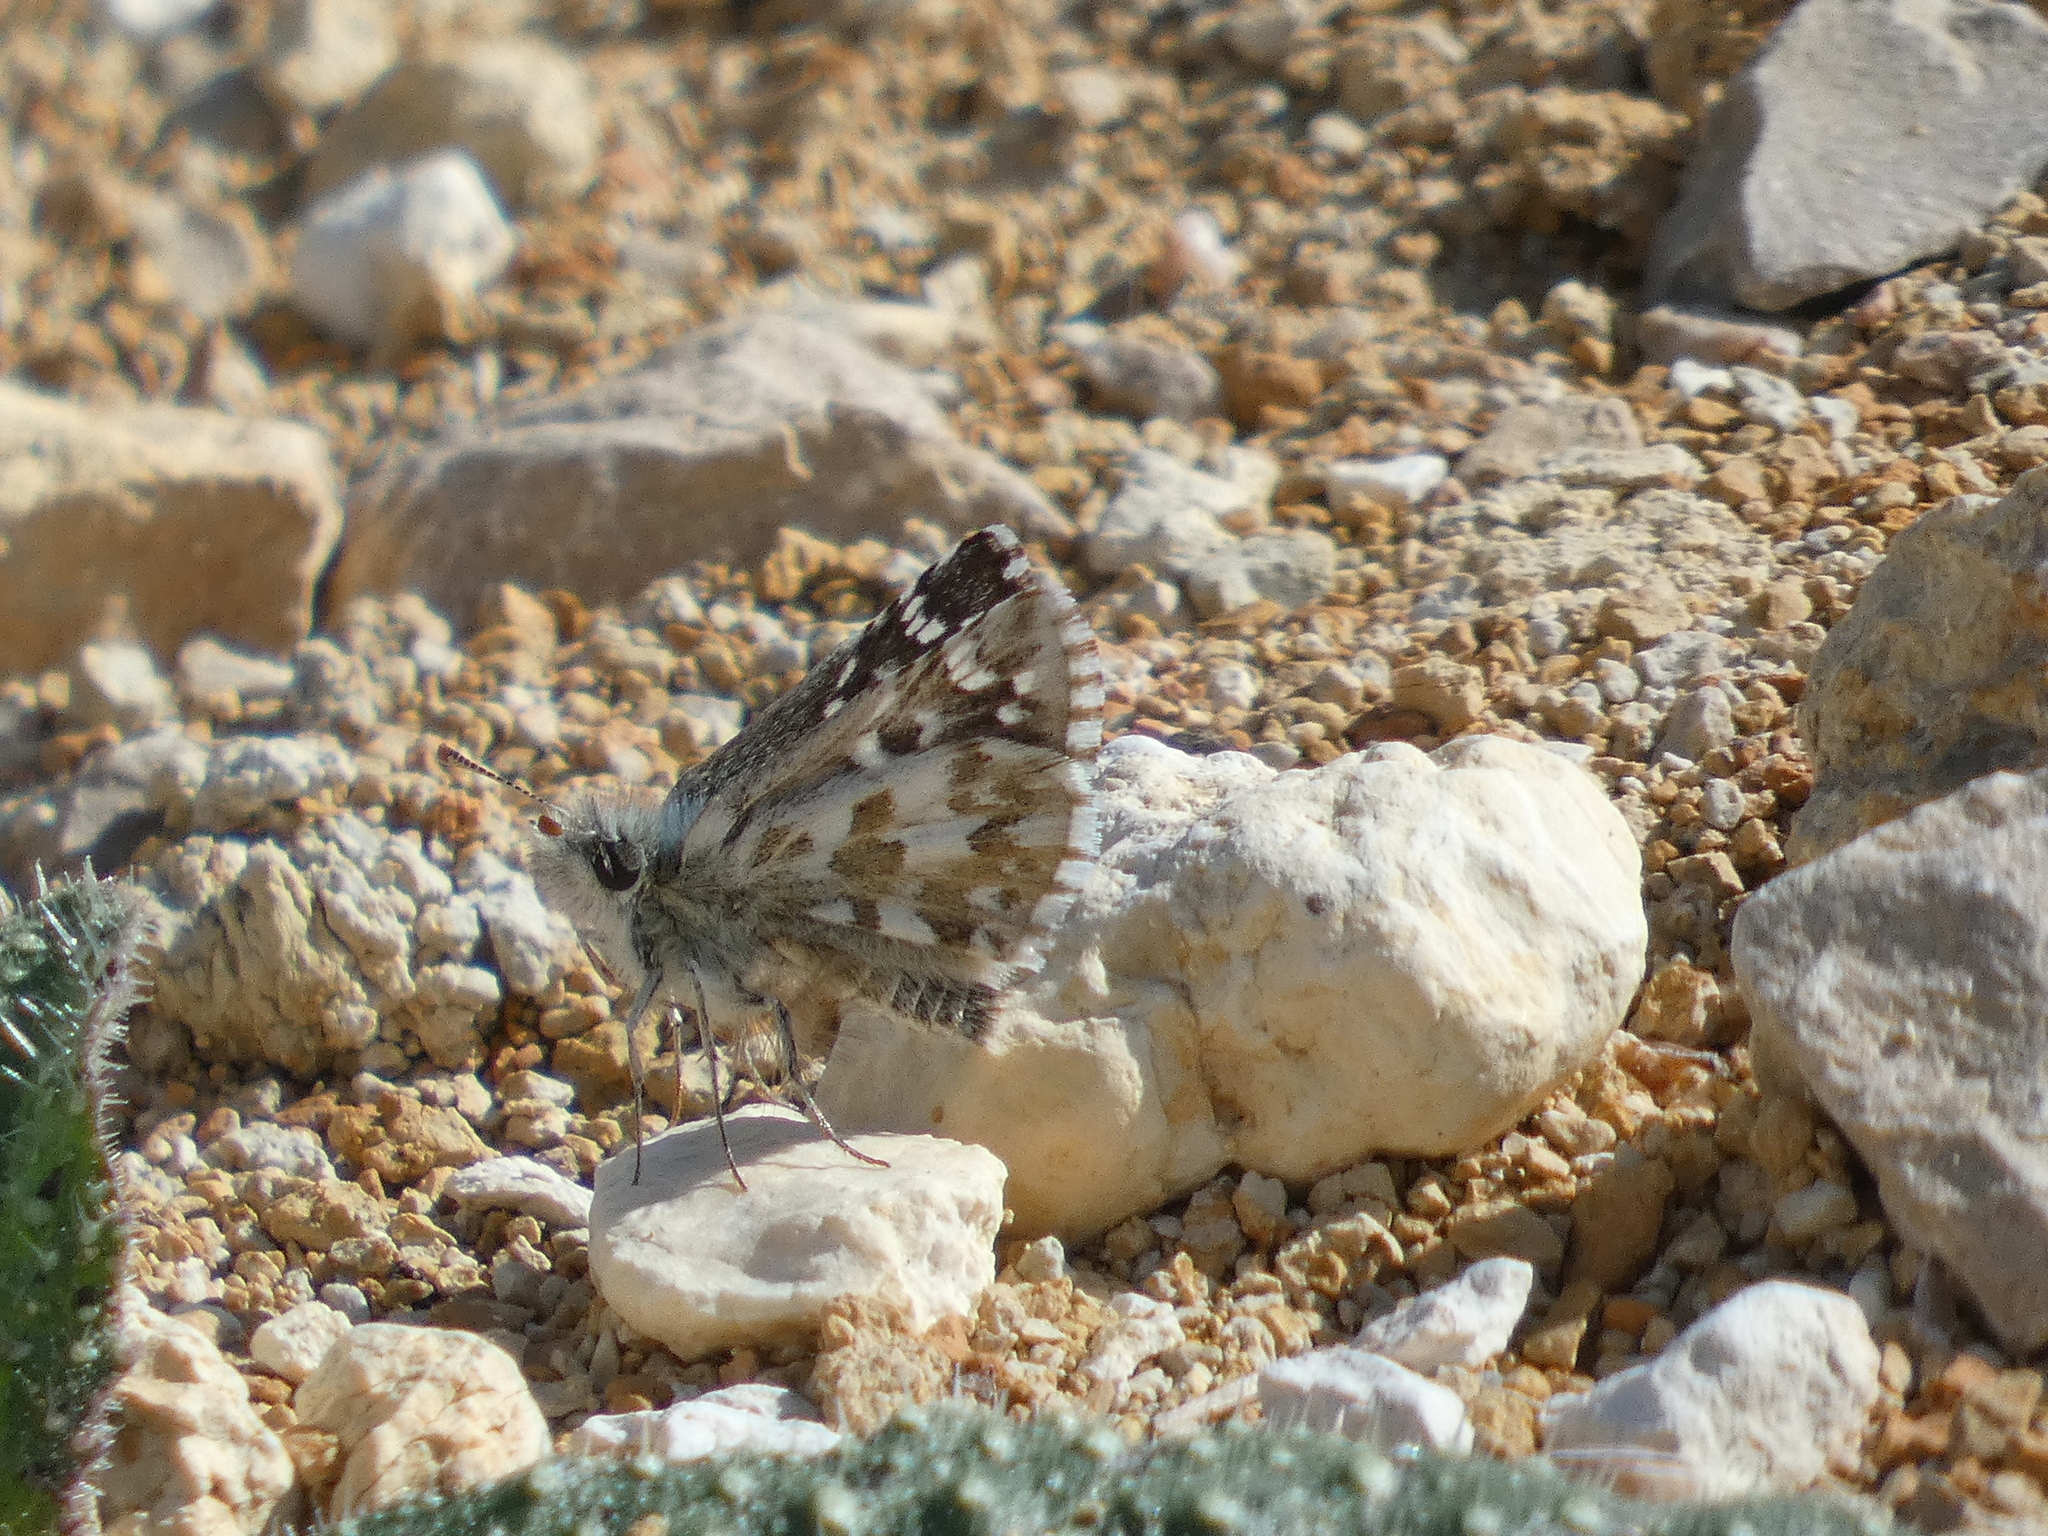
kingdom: Animalia
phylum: Arthropoda
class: Insecta
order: Lepidoptera
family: Hesperiidae
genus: Pyrgus
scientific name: Pyrgus onopordi
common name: Rosy grizzled skipper
